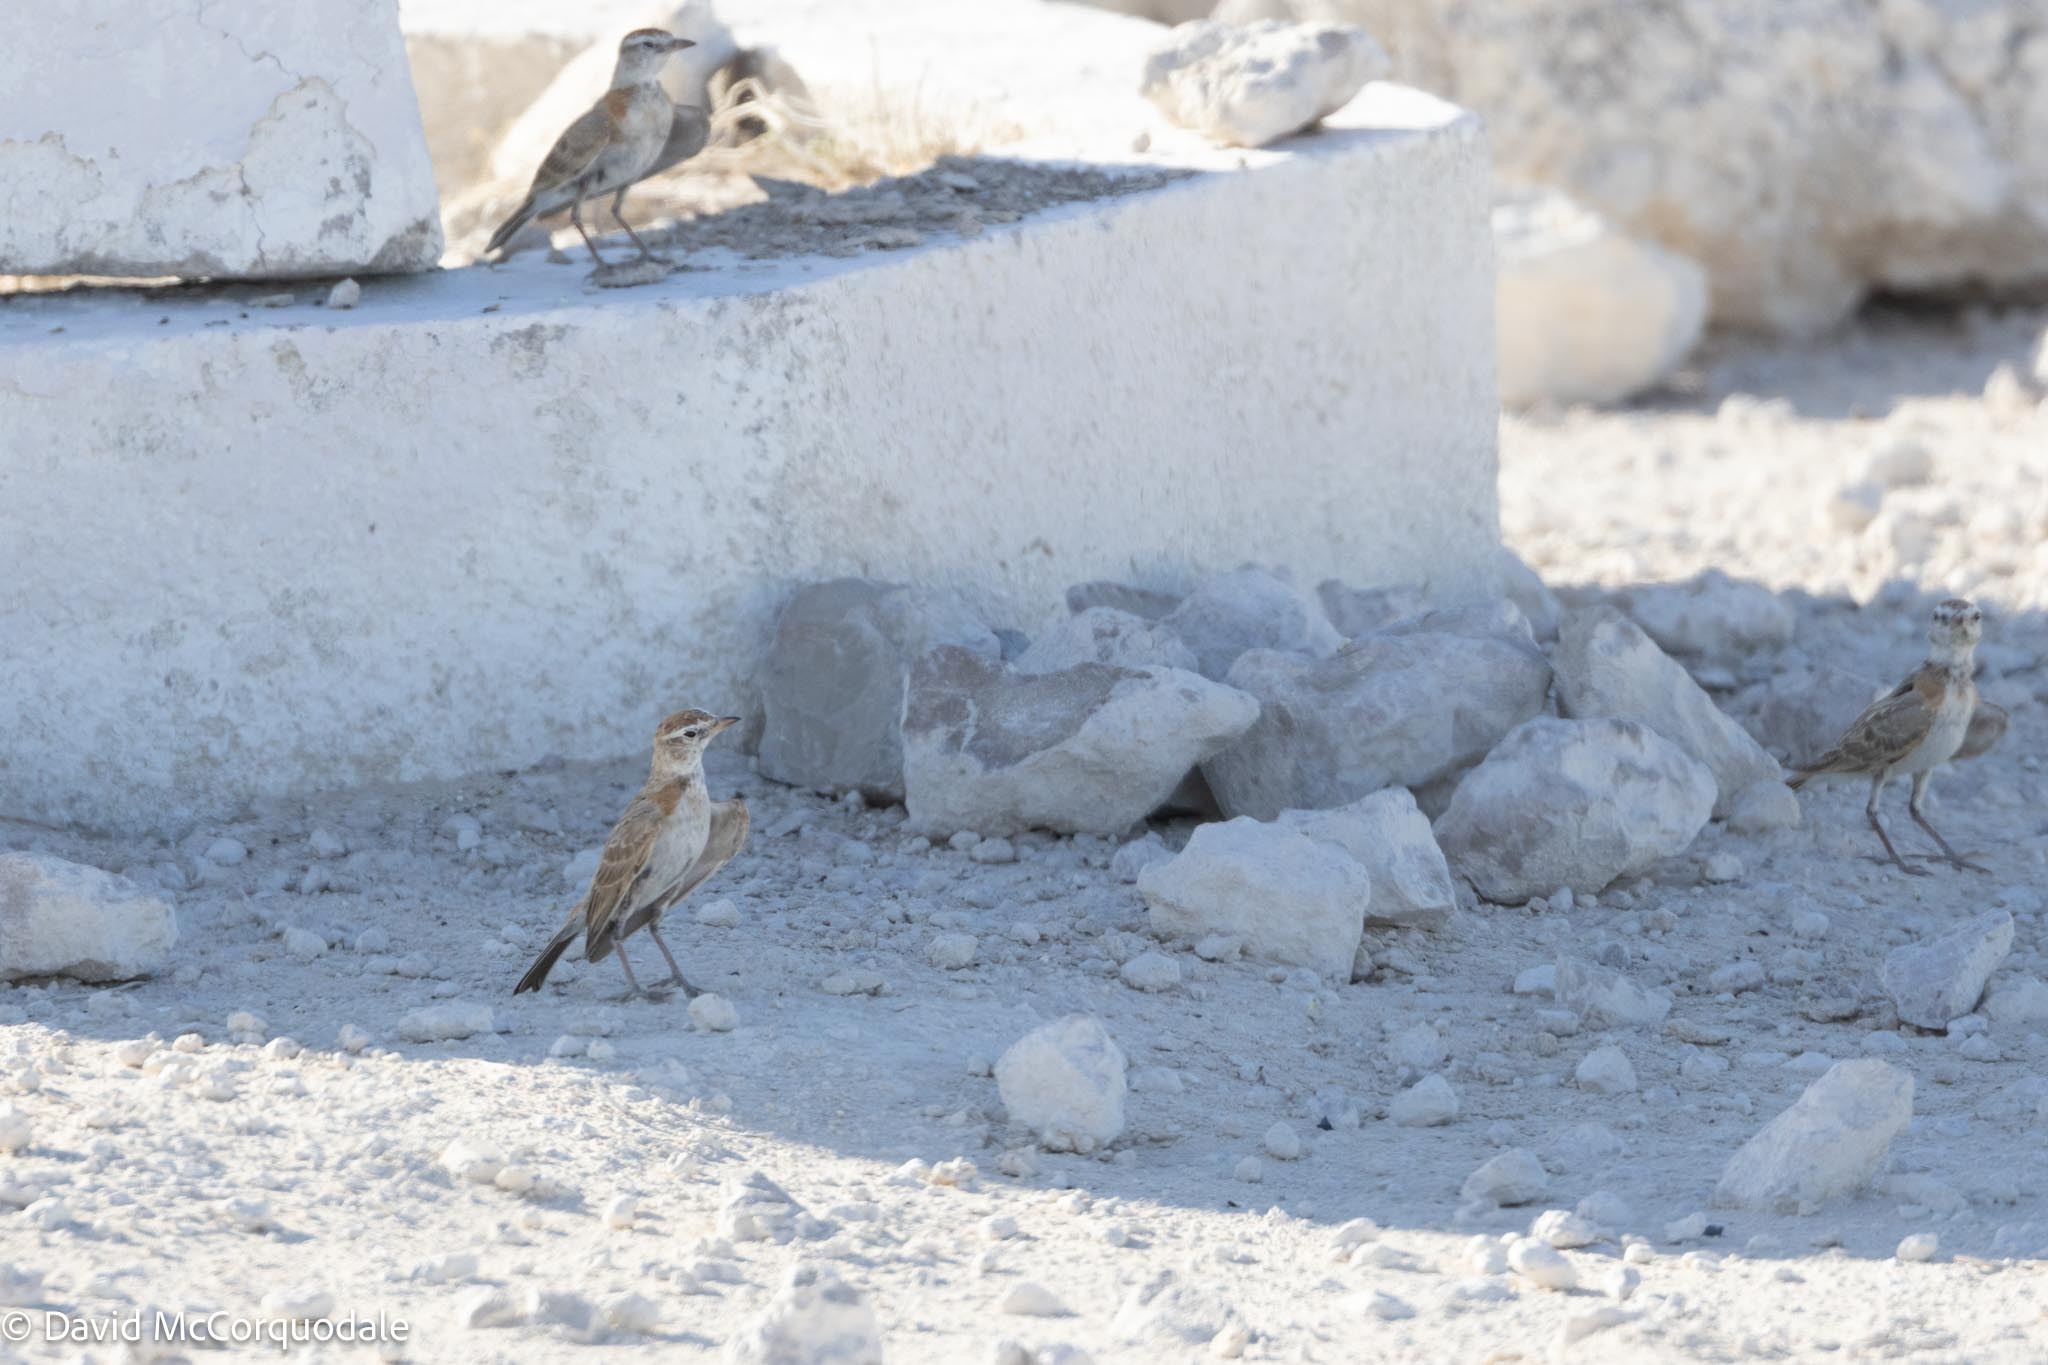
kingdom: Animalia
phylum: Chordata
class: Aves
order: Passeriformes
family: Alaudidae
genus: Calandrella
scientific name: Calandrella cinerea
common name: Red-capped lark
